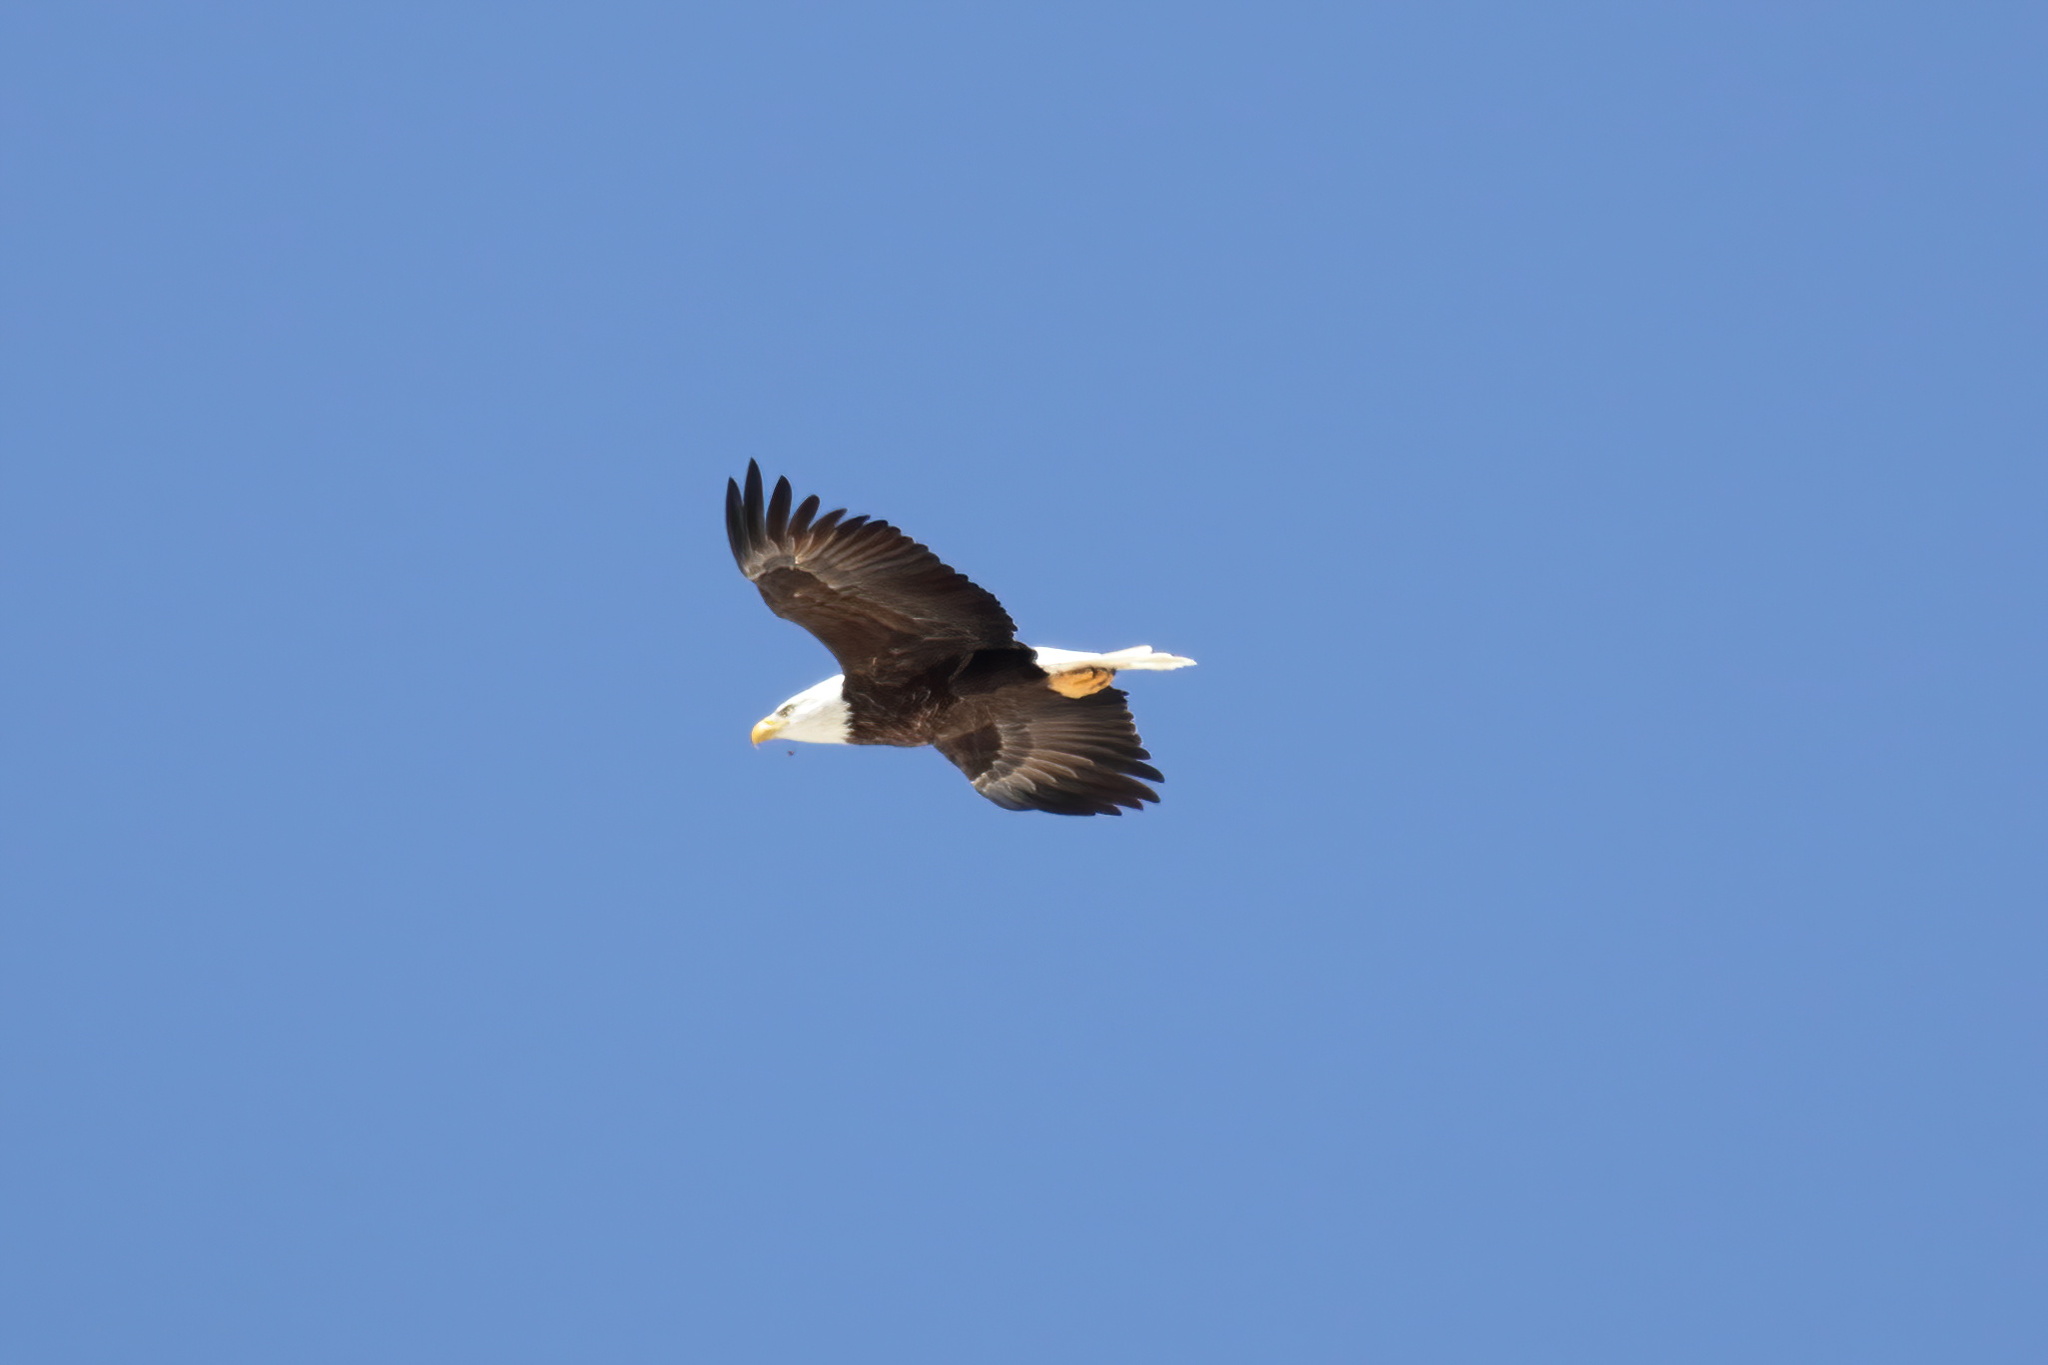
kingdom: Animalia
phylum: Chordata
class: Aves
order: Accipitriformes
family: Accipitridae
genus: Haliaeetus
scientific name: Haliaeetus leucocephalus
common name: Bald eagle
